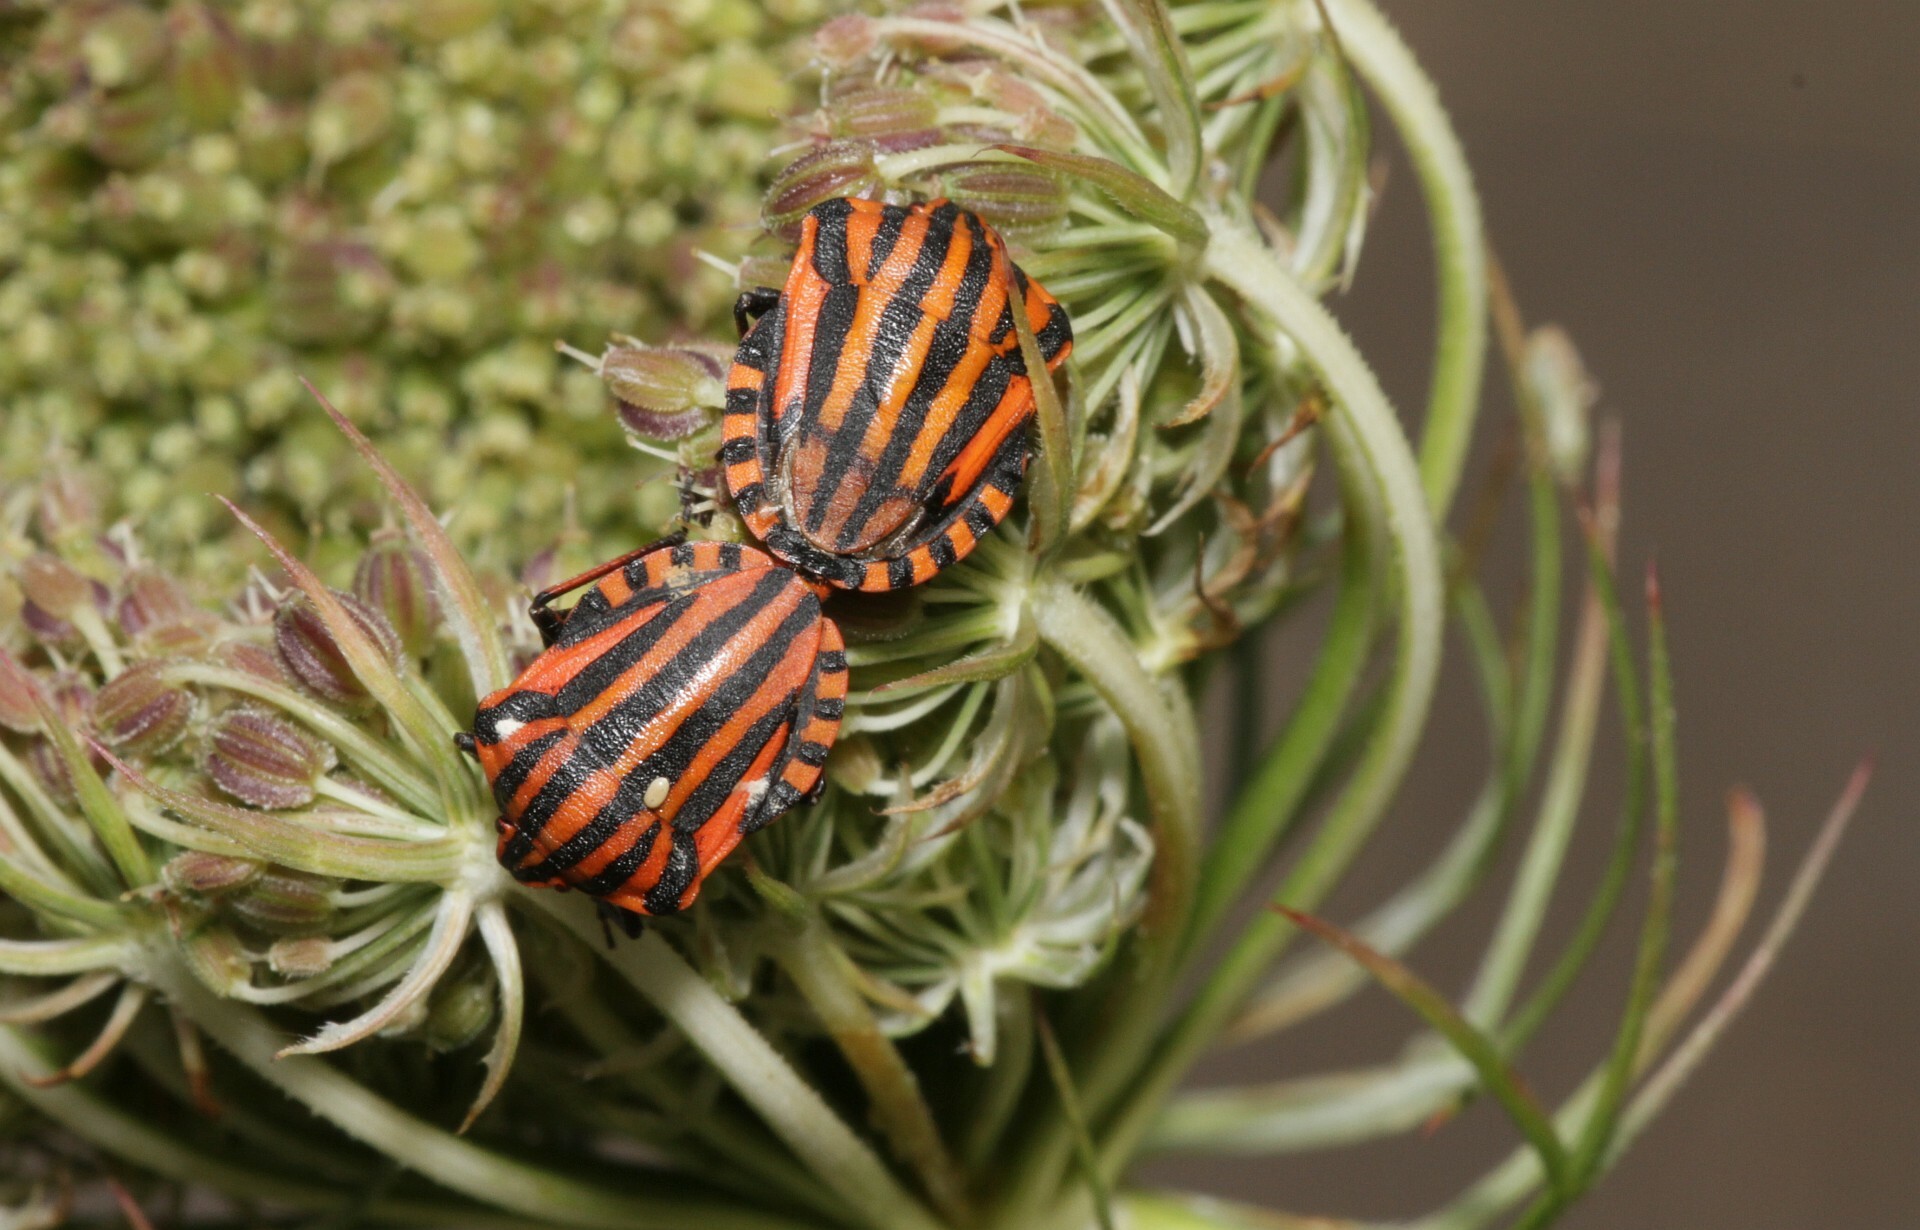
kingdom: Animalia
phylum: Arthropoda
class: Insecta
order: Hemiptera
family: Pentatomidae
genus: Graphosoma
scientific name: Graphosoma italicum
